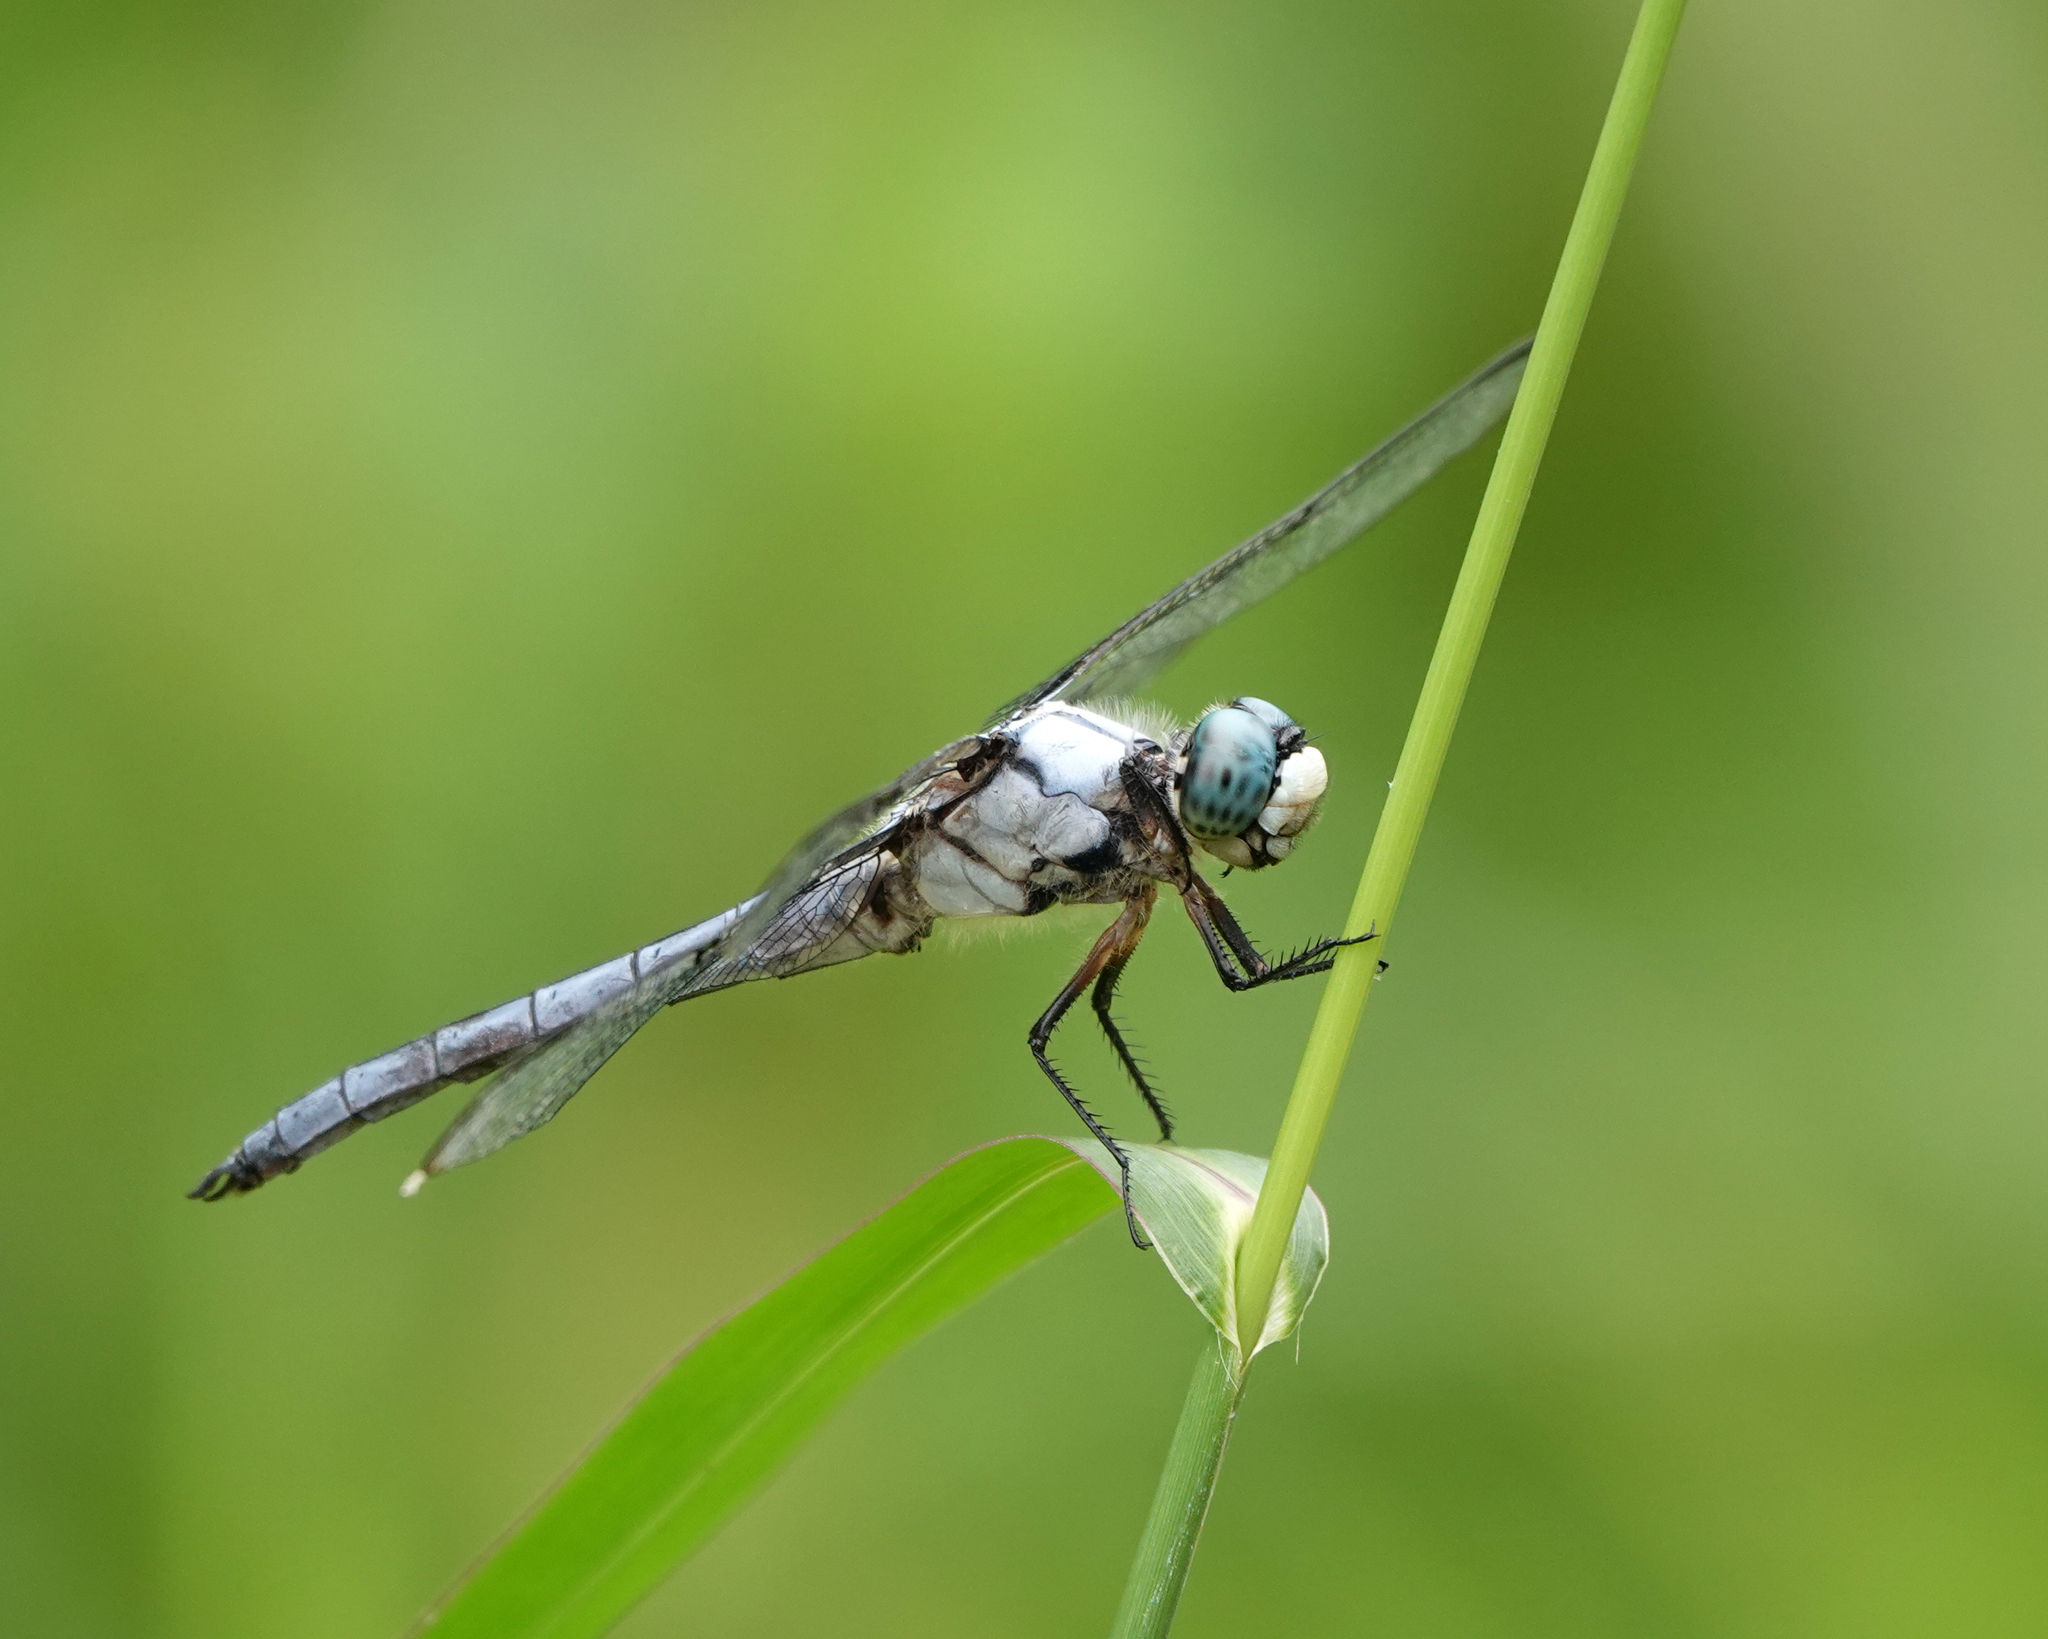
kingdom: Animalia
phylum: Arthropoda
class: Insecta
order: Odonata
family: Libellulidae
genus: Libellula
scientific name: Libellula vibrans
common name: Great blue skimmer
